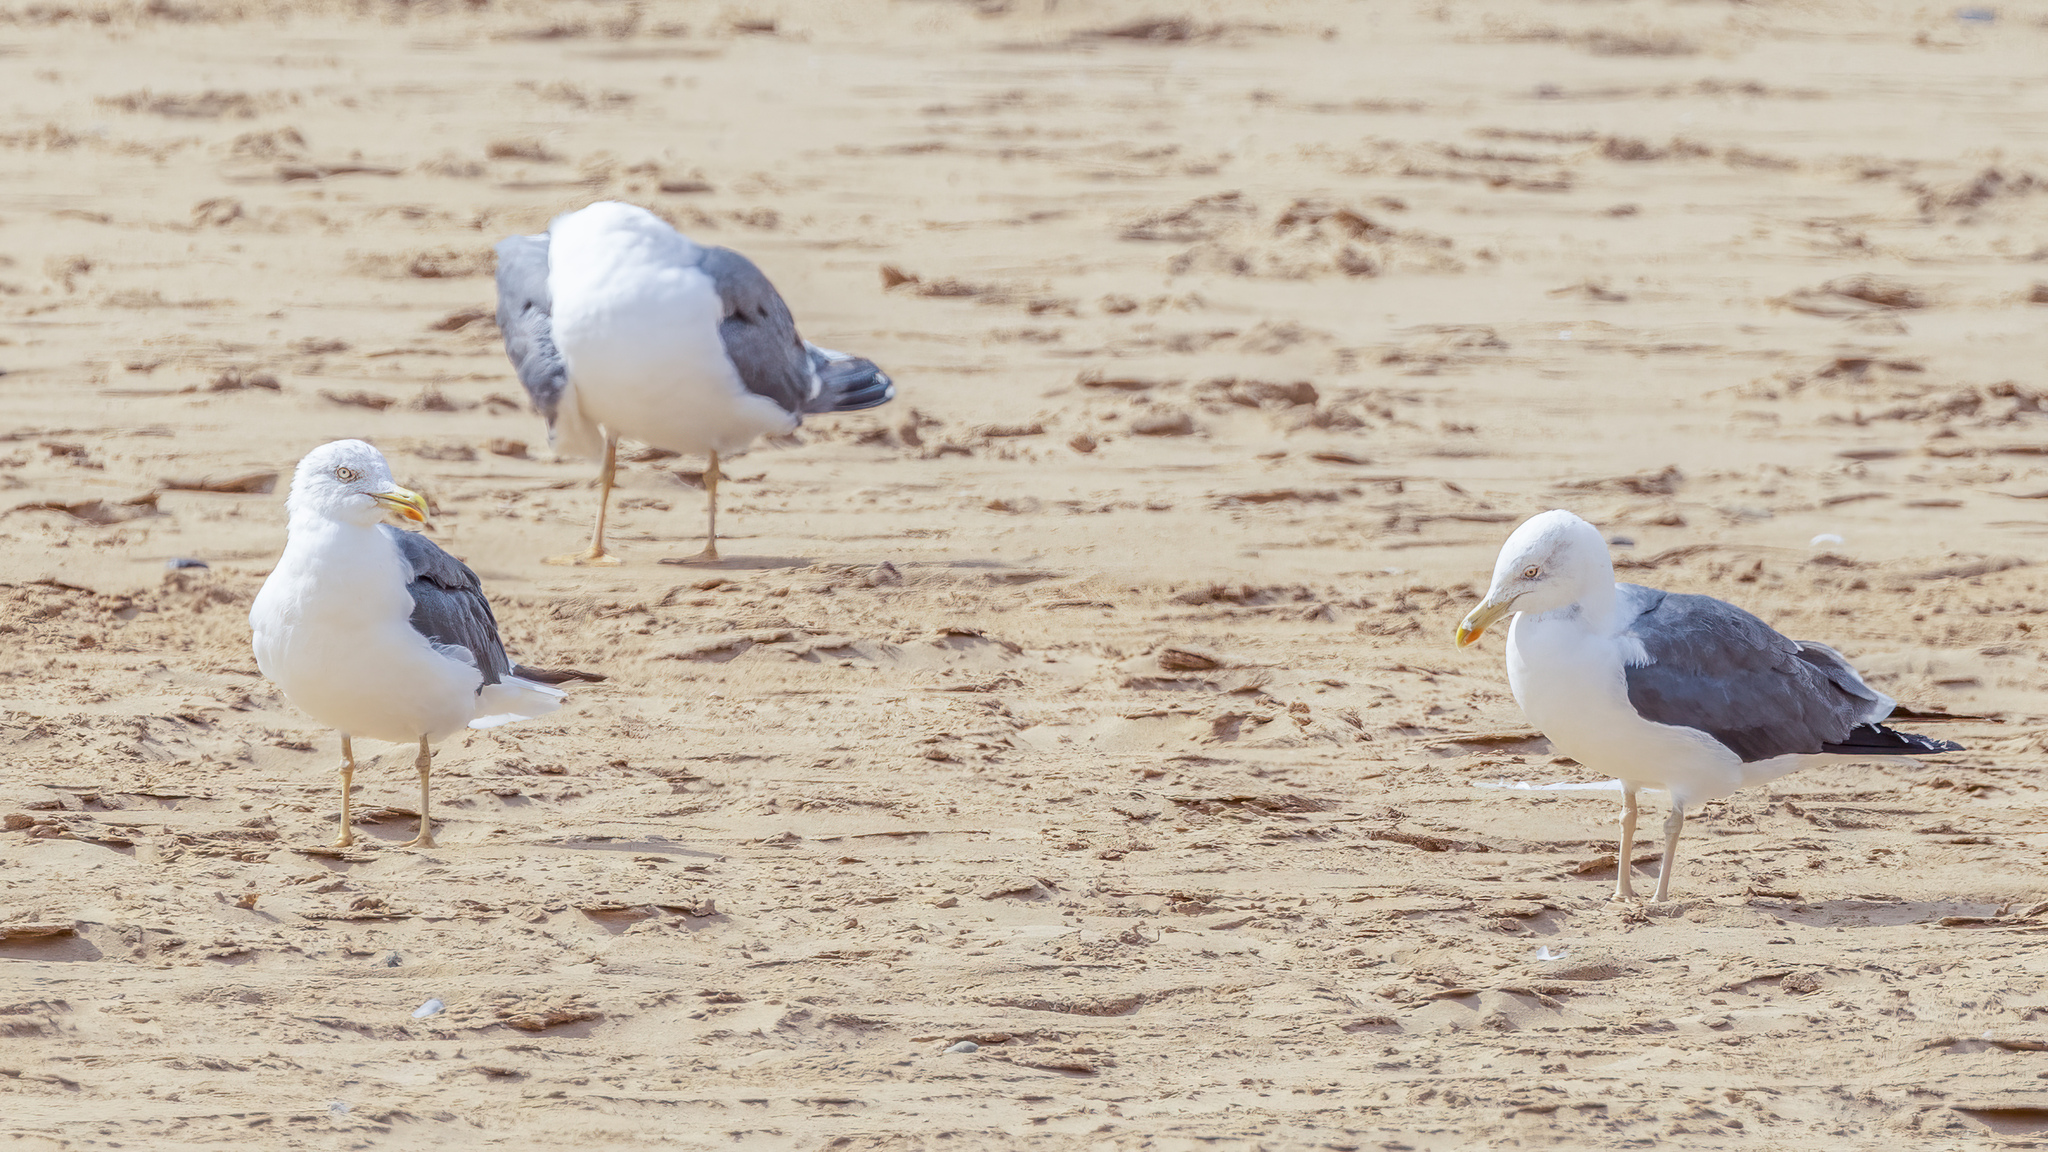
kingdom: Animalia
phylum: Chordata
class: Aves
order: Charadriiformes
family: Laridae
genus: Larus
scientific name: Larus fuscus
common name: Lesser black-backed gull
